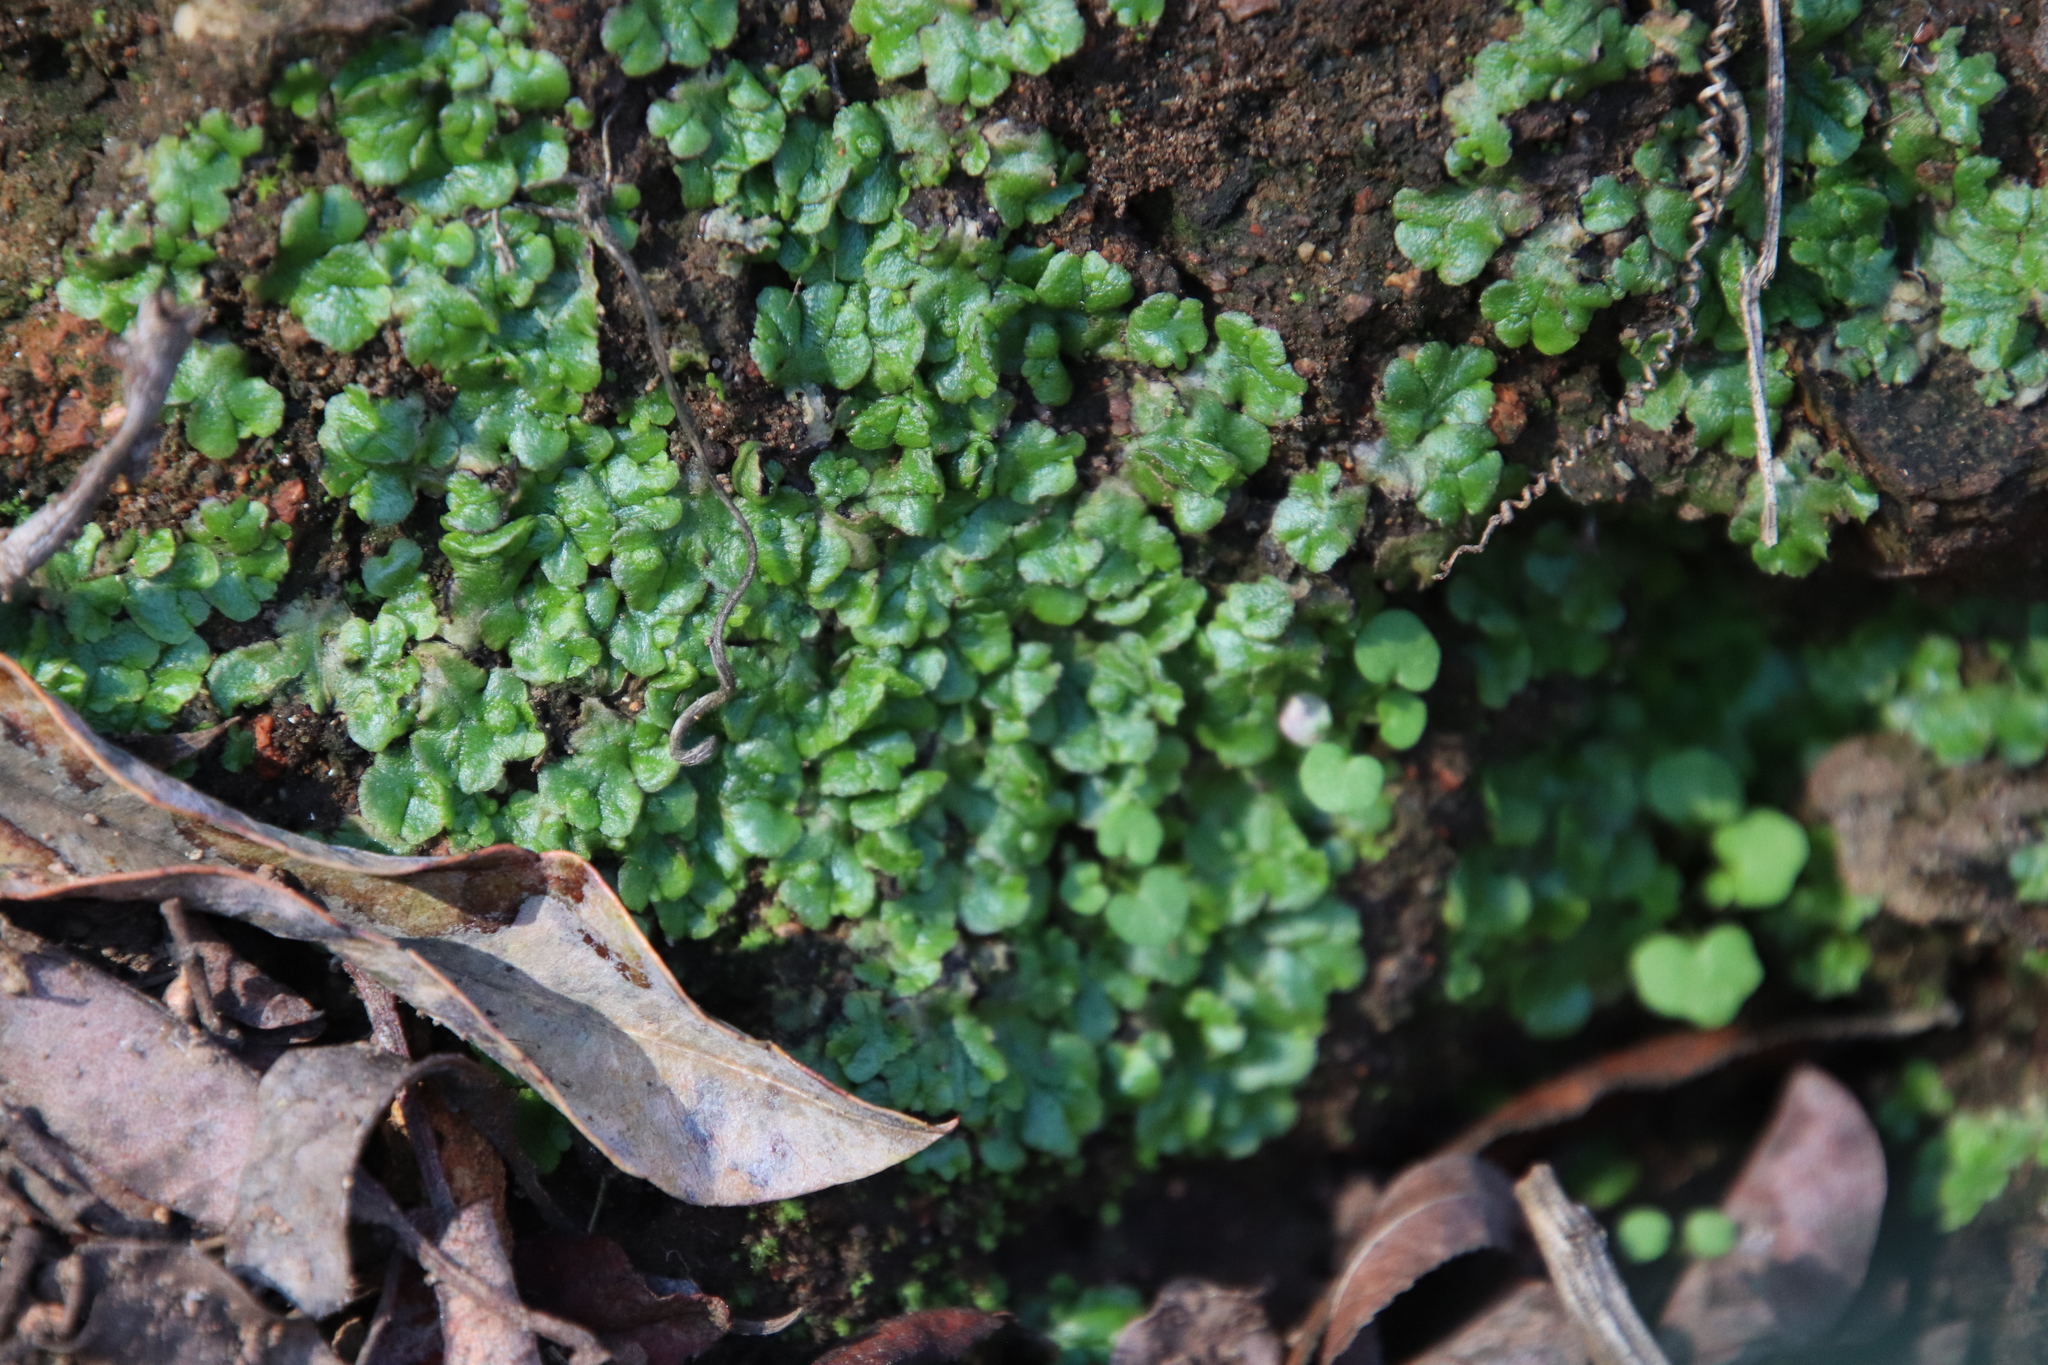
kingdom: Plantae
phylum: Marchantiophyta
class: Marchantiopsida
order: Marchantiales
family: Aytoniaceae
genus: Cryptomitrium
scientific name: Cryptomitrium tenerum
